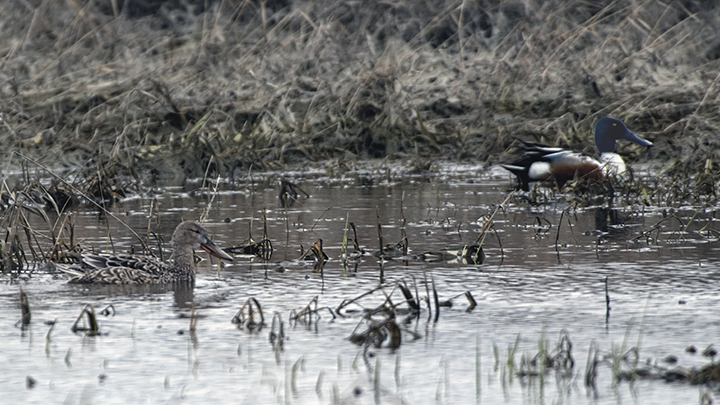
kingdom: Animalia
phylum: Chordata
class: Aves
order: Anseriformes
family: Anatidae
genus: Spatula
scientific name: Spatula clypeata
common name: Northern shoveler
